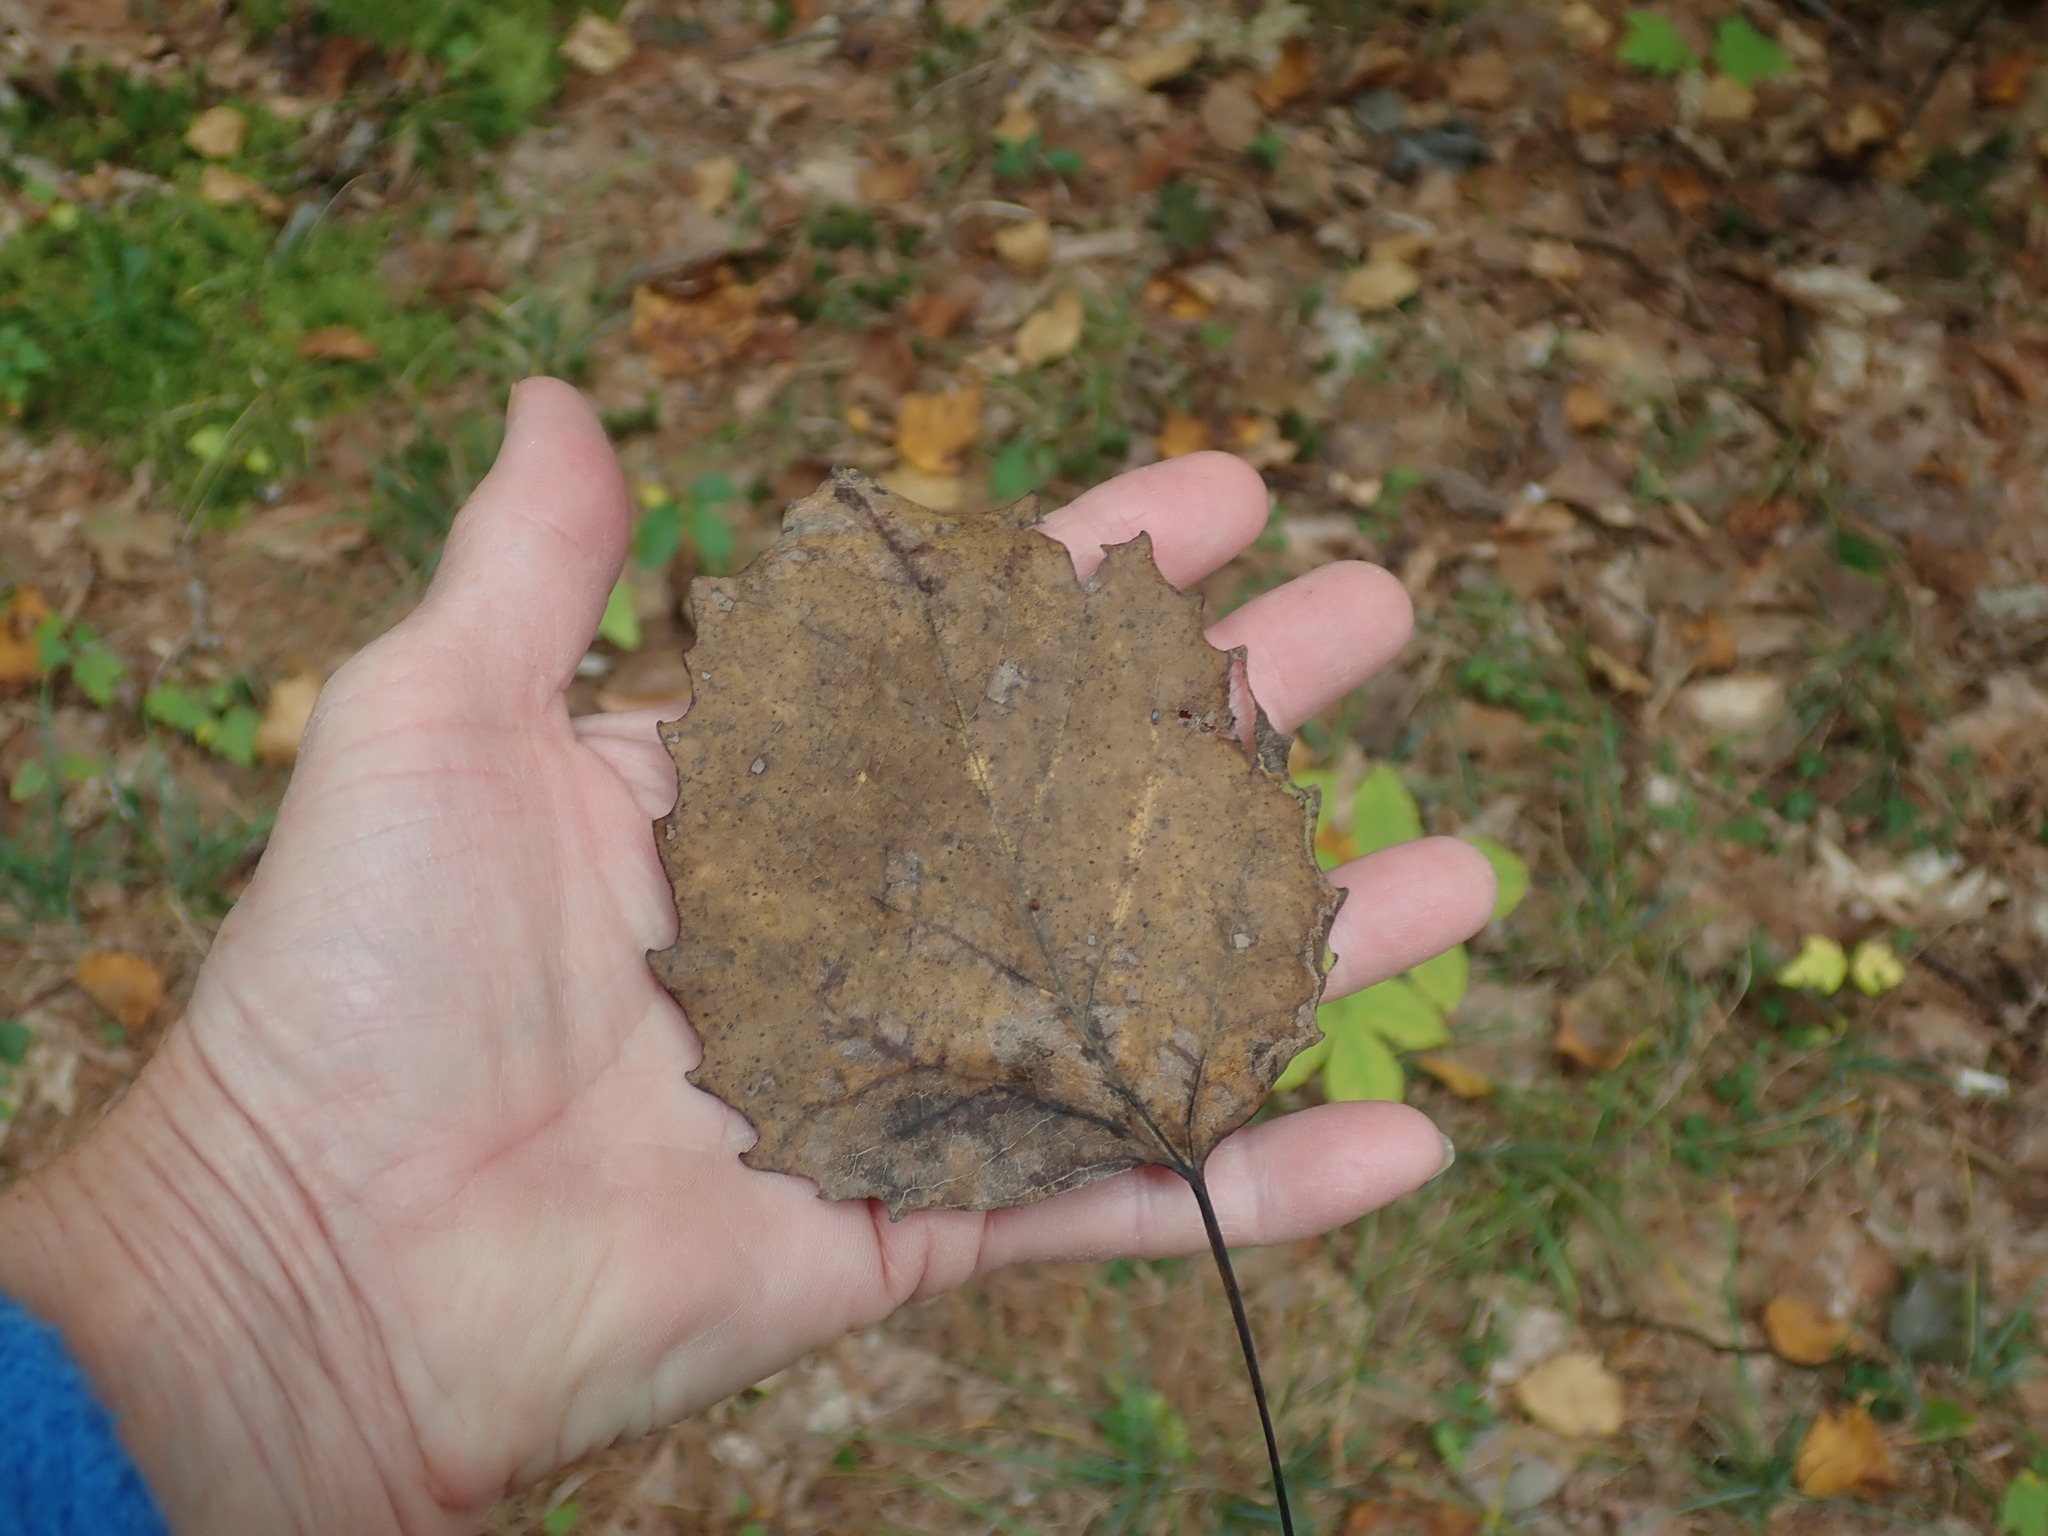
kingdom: Plantae
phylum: Tracheophyta
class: Magnoliopsida
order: Malpighiales
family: Salicaceae
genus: Populus
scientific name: Populus grandidentata
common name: Bigtooth aspen
